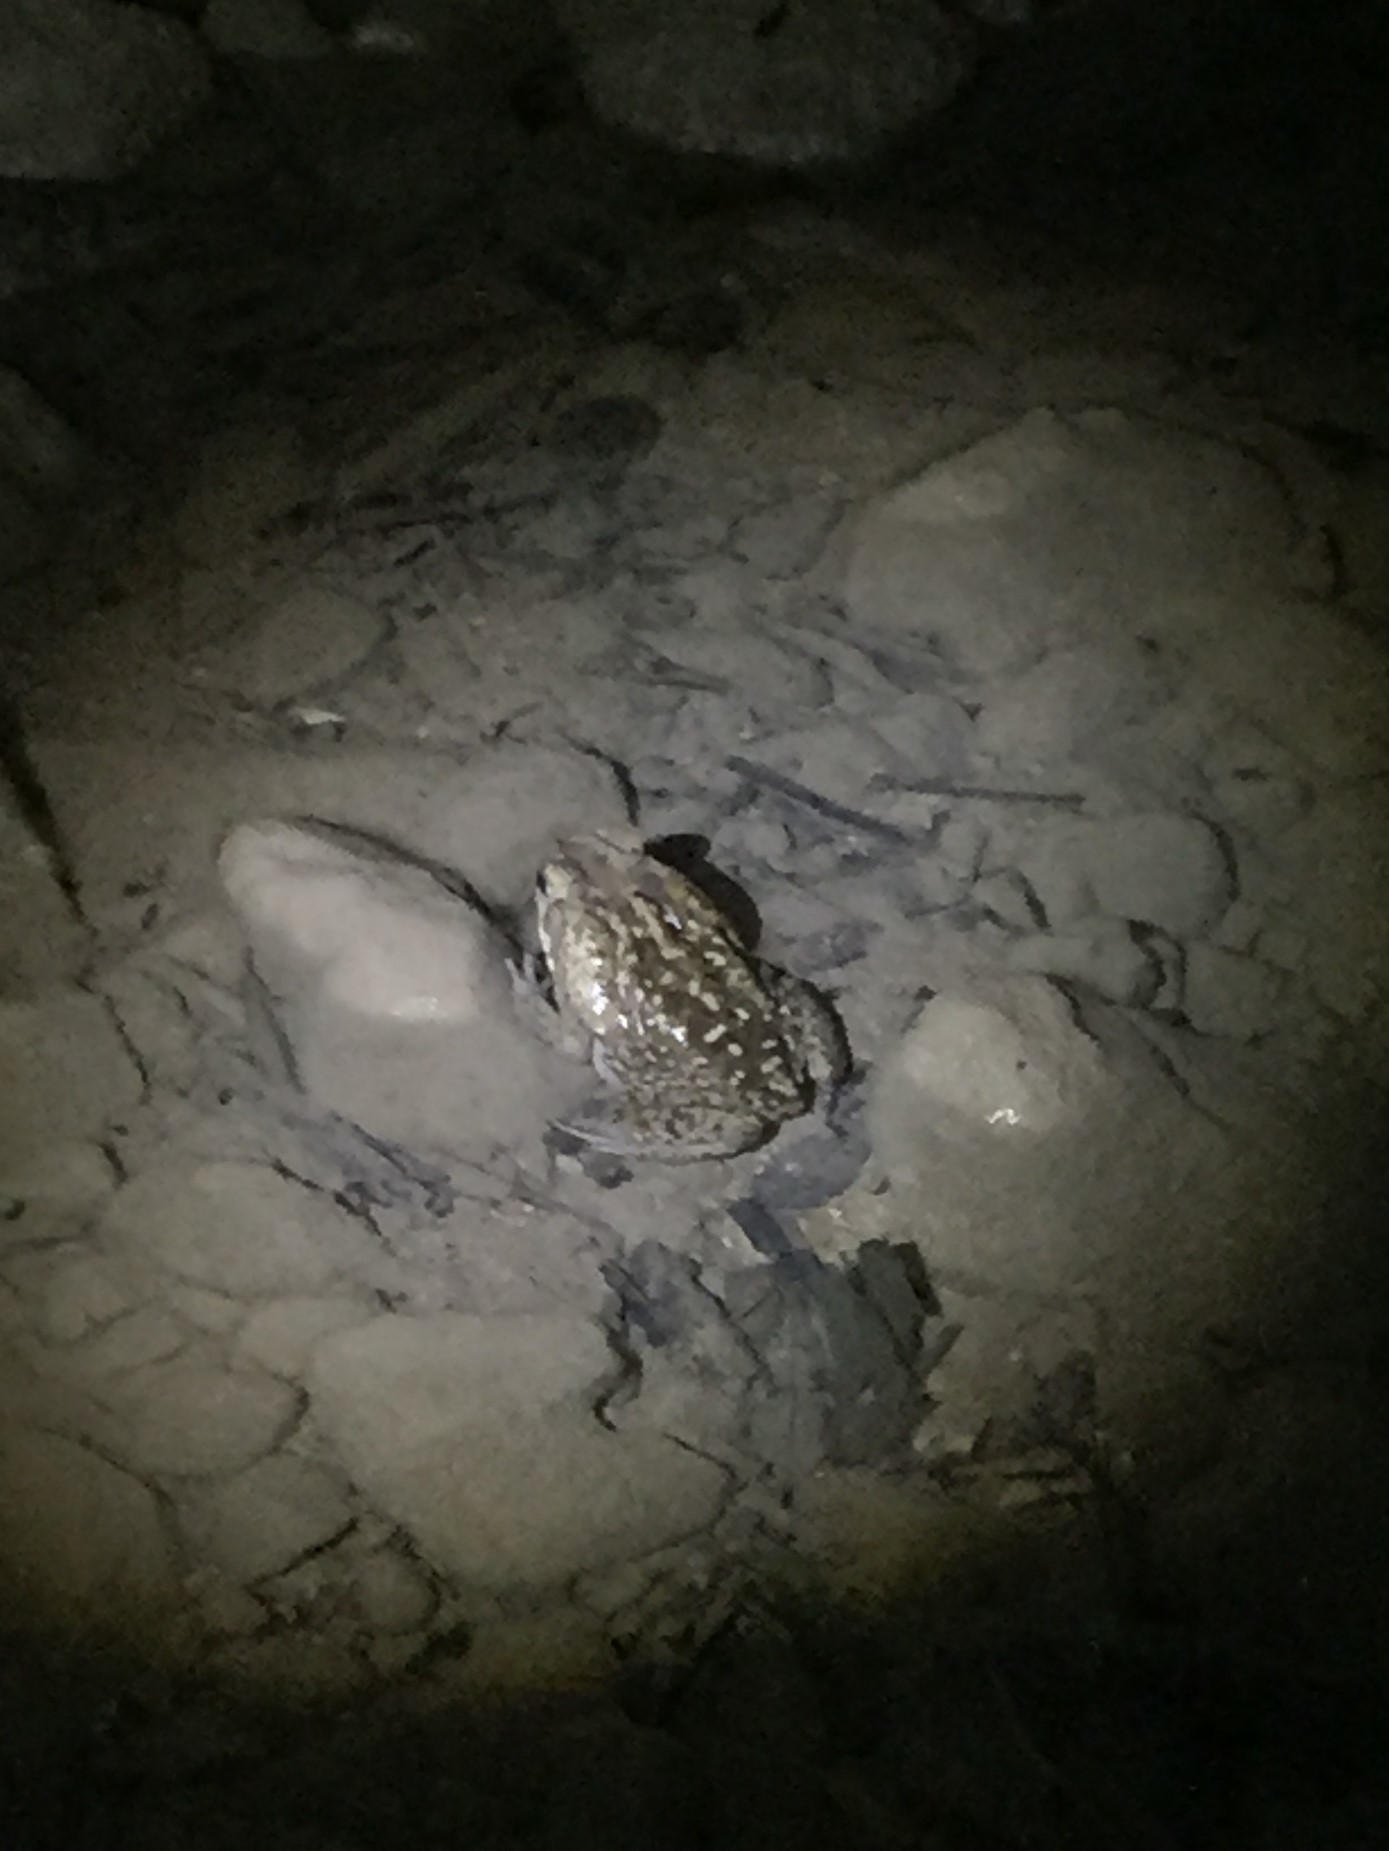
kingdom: Animalia
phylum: Chordata
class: Amphibia
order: Anura
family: Bufonidae
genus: Rhinella
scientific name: Rhinella horribilis
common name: Mesoamerican cane toad
